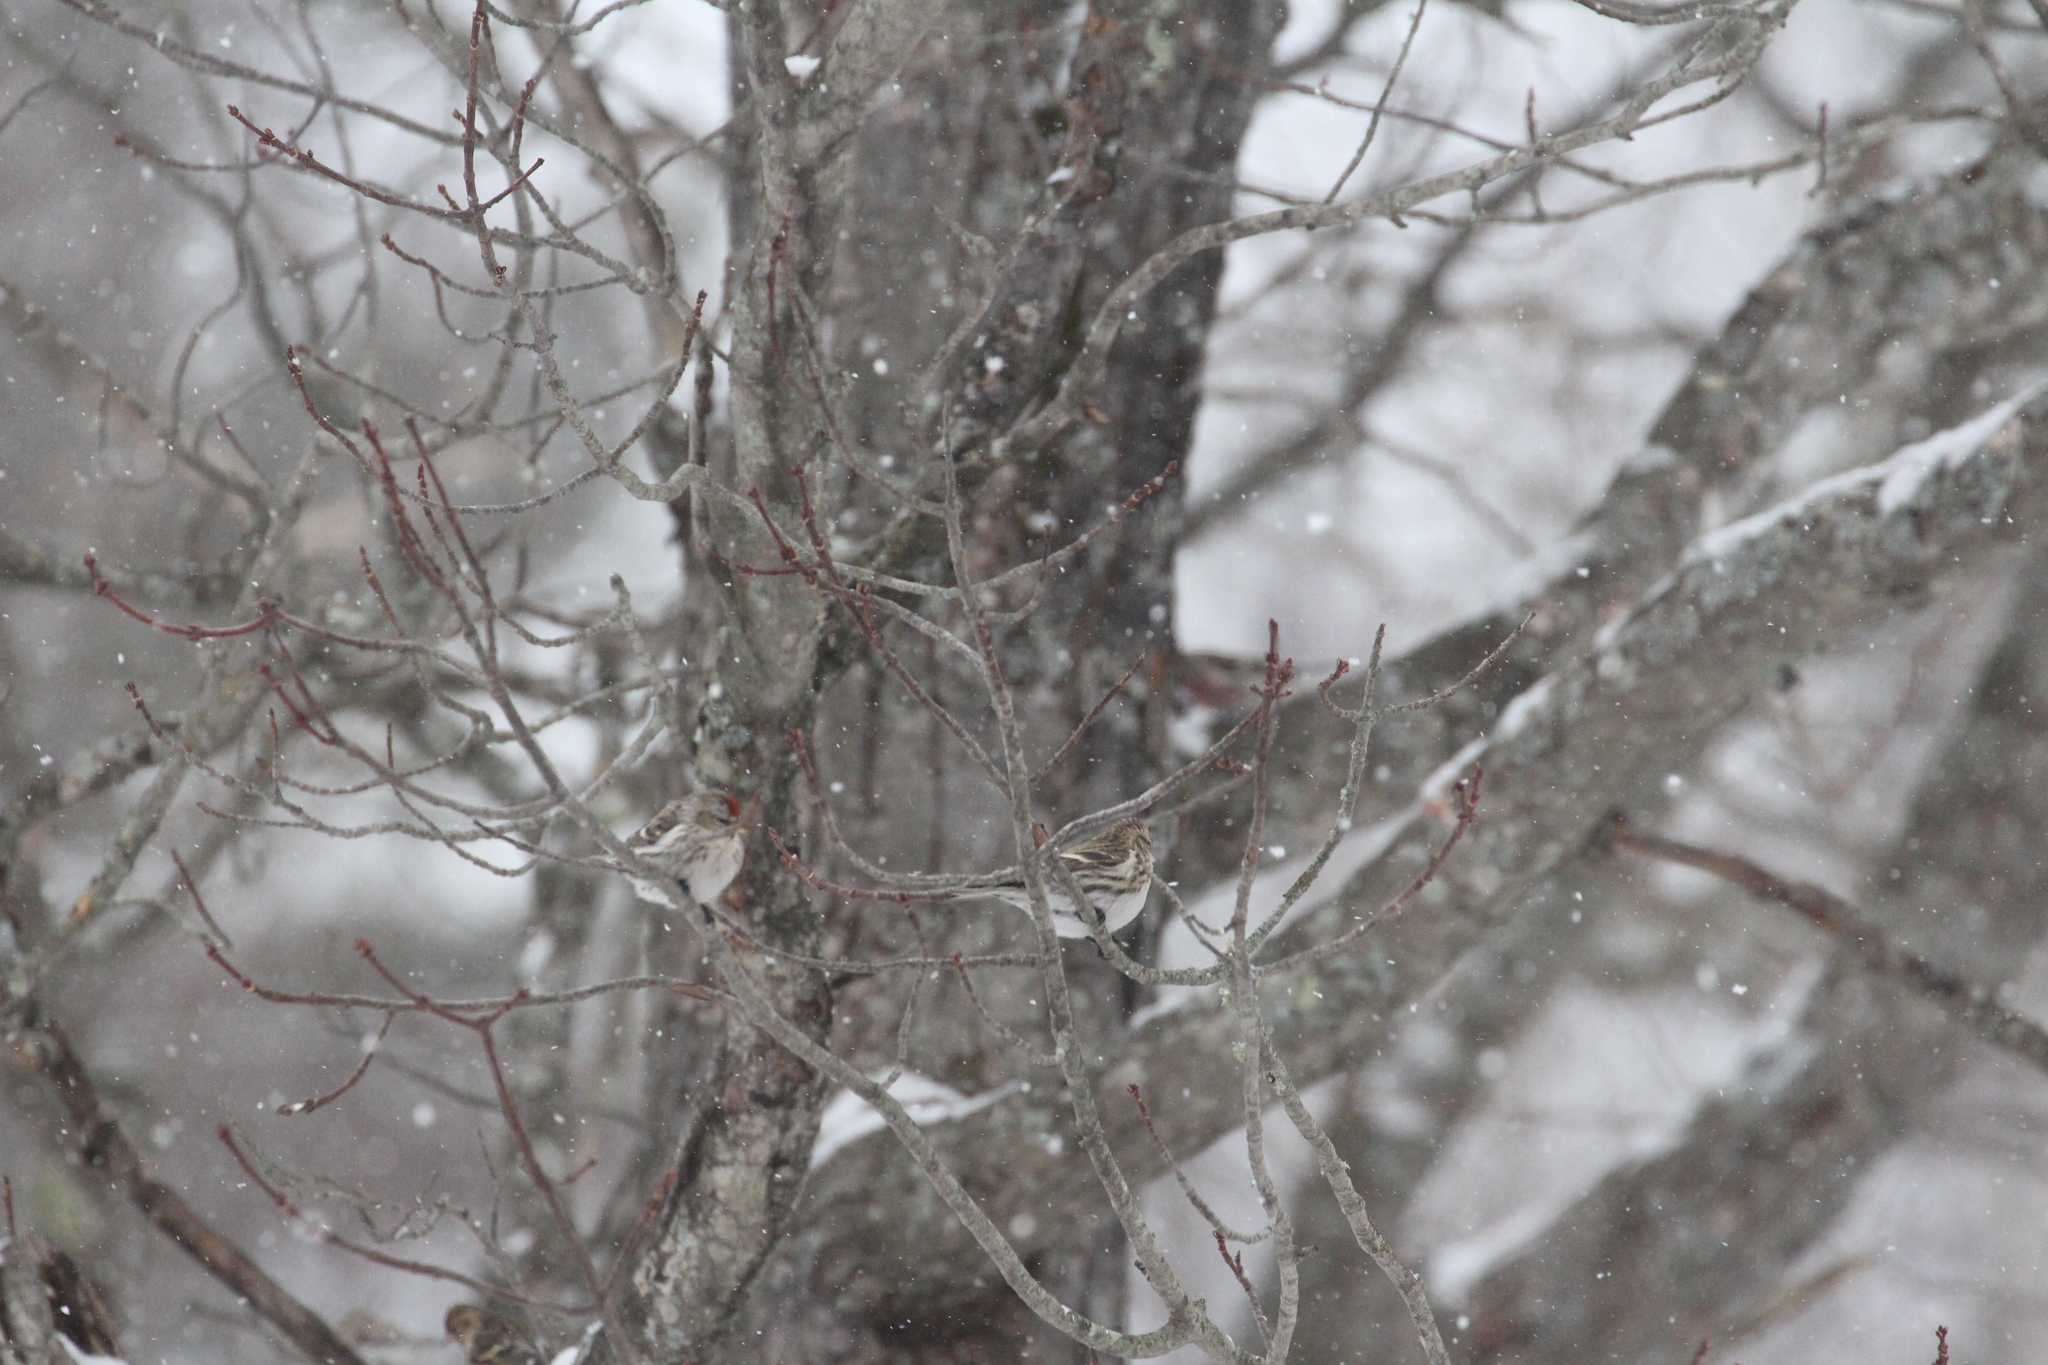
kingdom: Animalia
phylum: Chordata
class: Aves
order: Passeriformes
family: Fringillidae
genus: Acanthis
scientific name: Acanthis flammea
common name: Common redpoll
